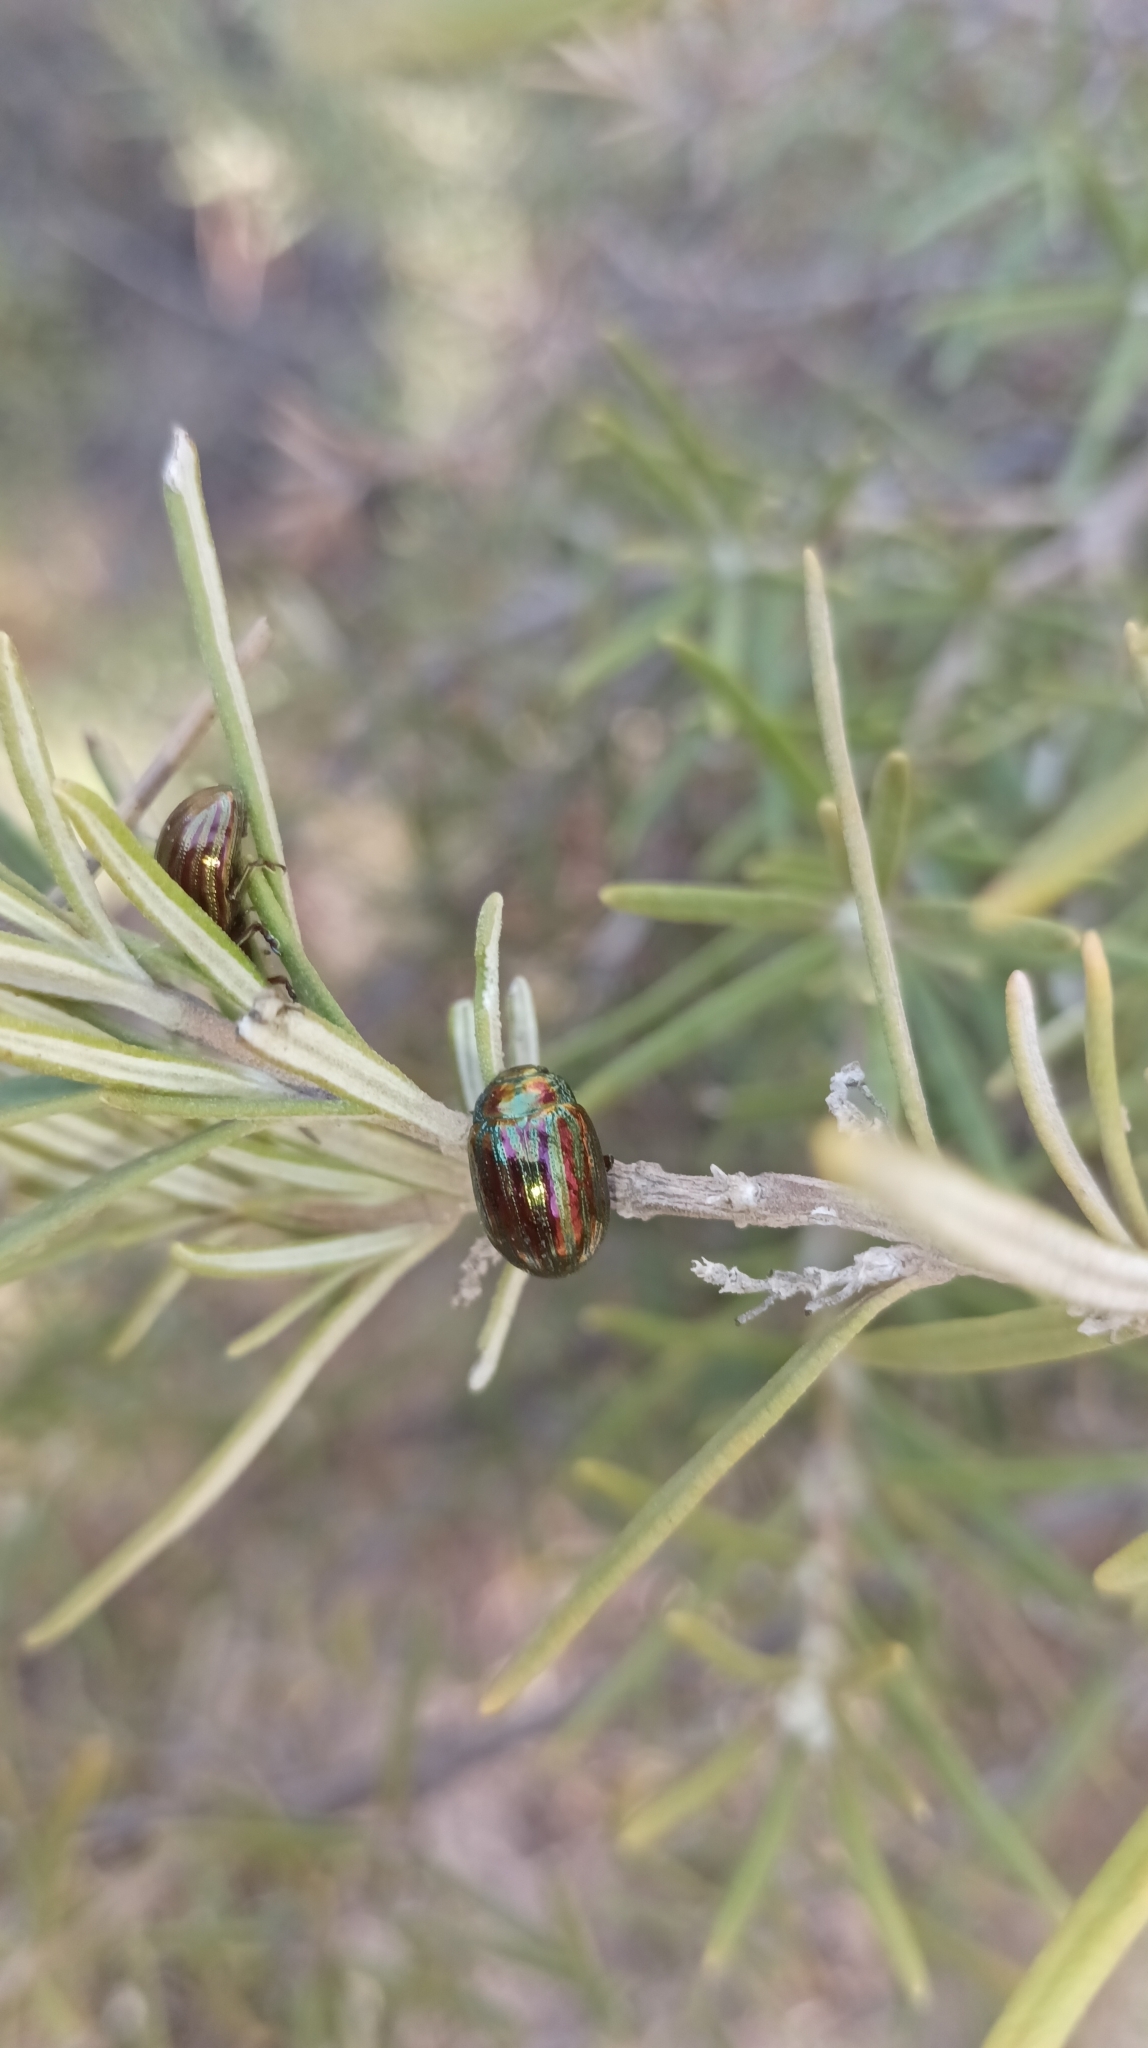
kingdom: Animalia
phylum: Arthropoda
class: Insecta
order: Coleoptera
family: Chrysomelidae
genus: Chrysolina
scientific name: Chrysolina americana
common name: Rosemary beetle
